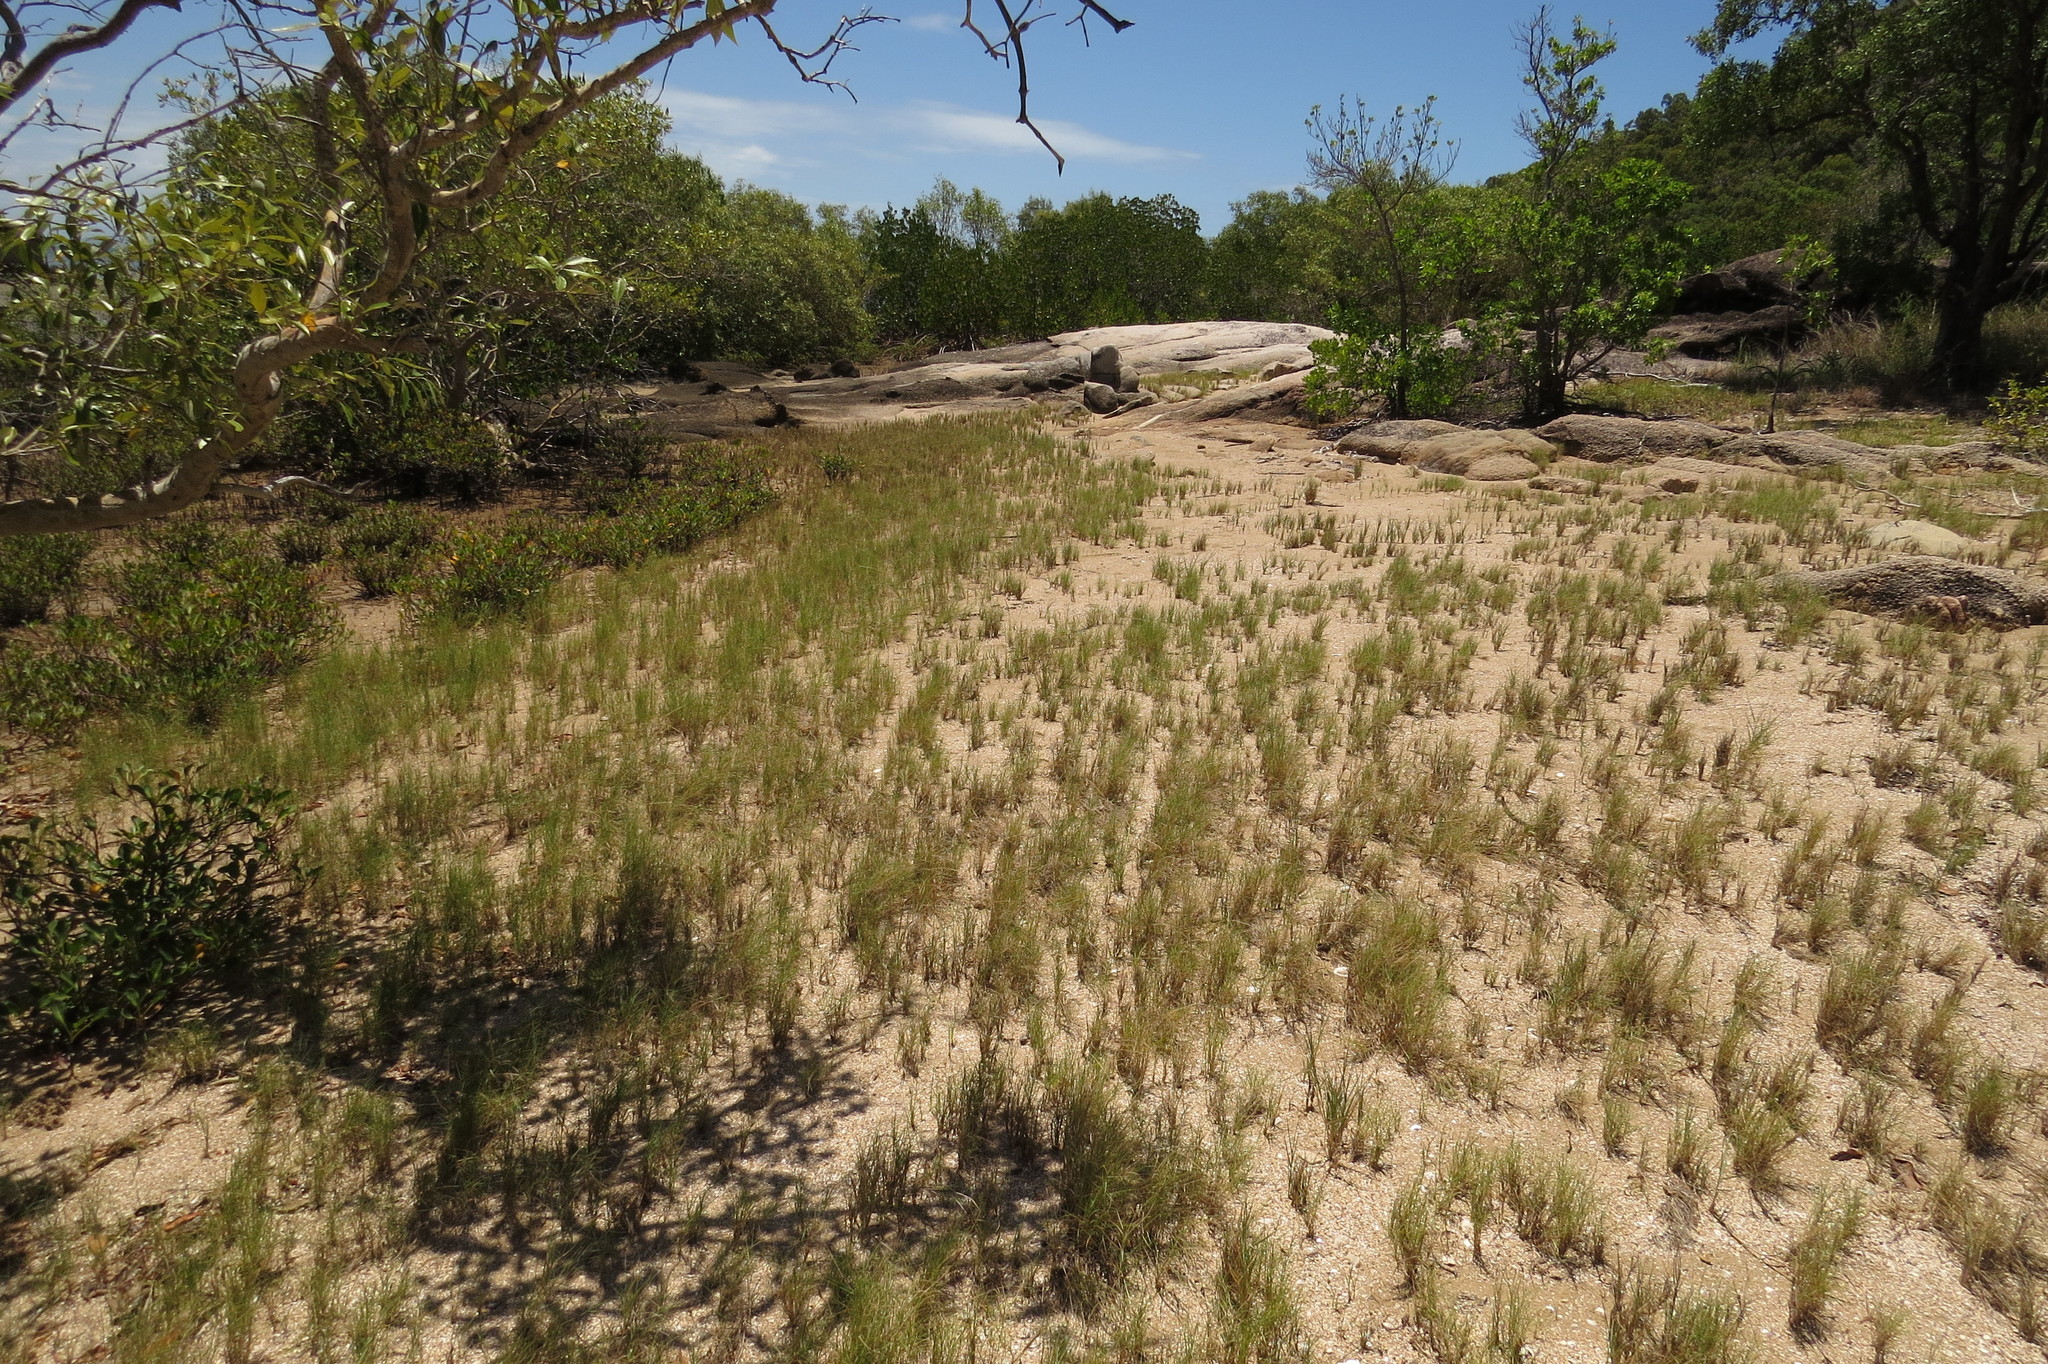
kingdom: Plantae
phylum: Tracheophyta
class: Liliopsida
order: Poales
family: Poaceae
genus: Sporobolus
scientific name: Sporobolus virginicus
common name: Beach dropseed
